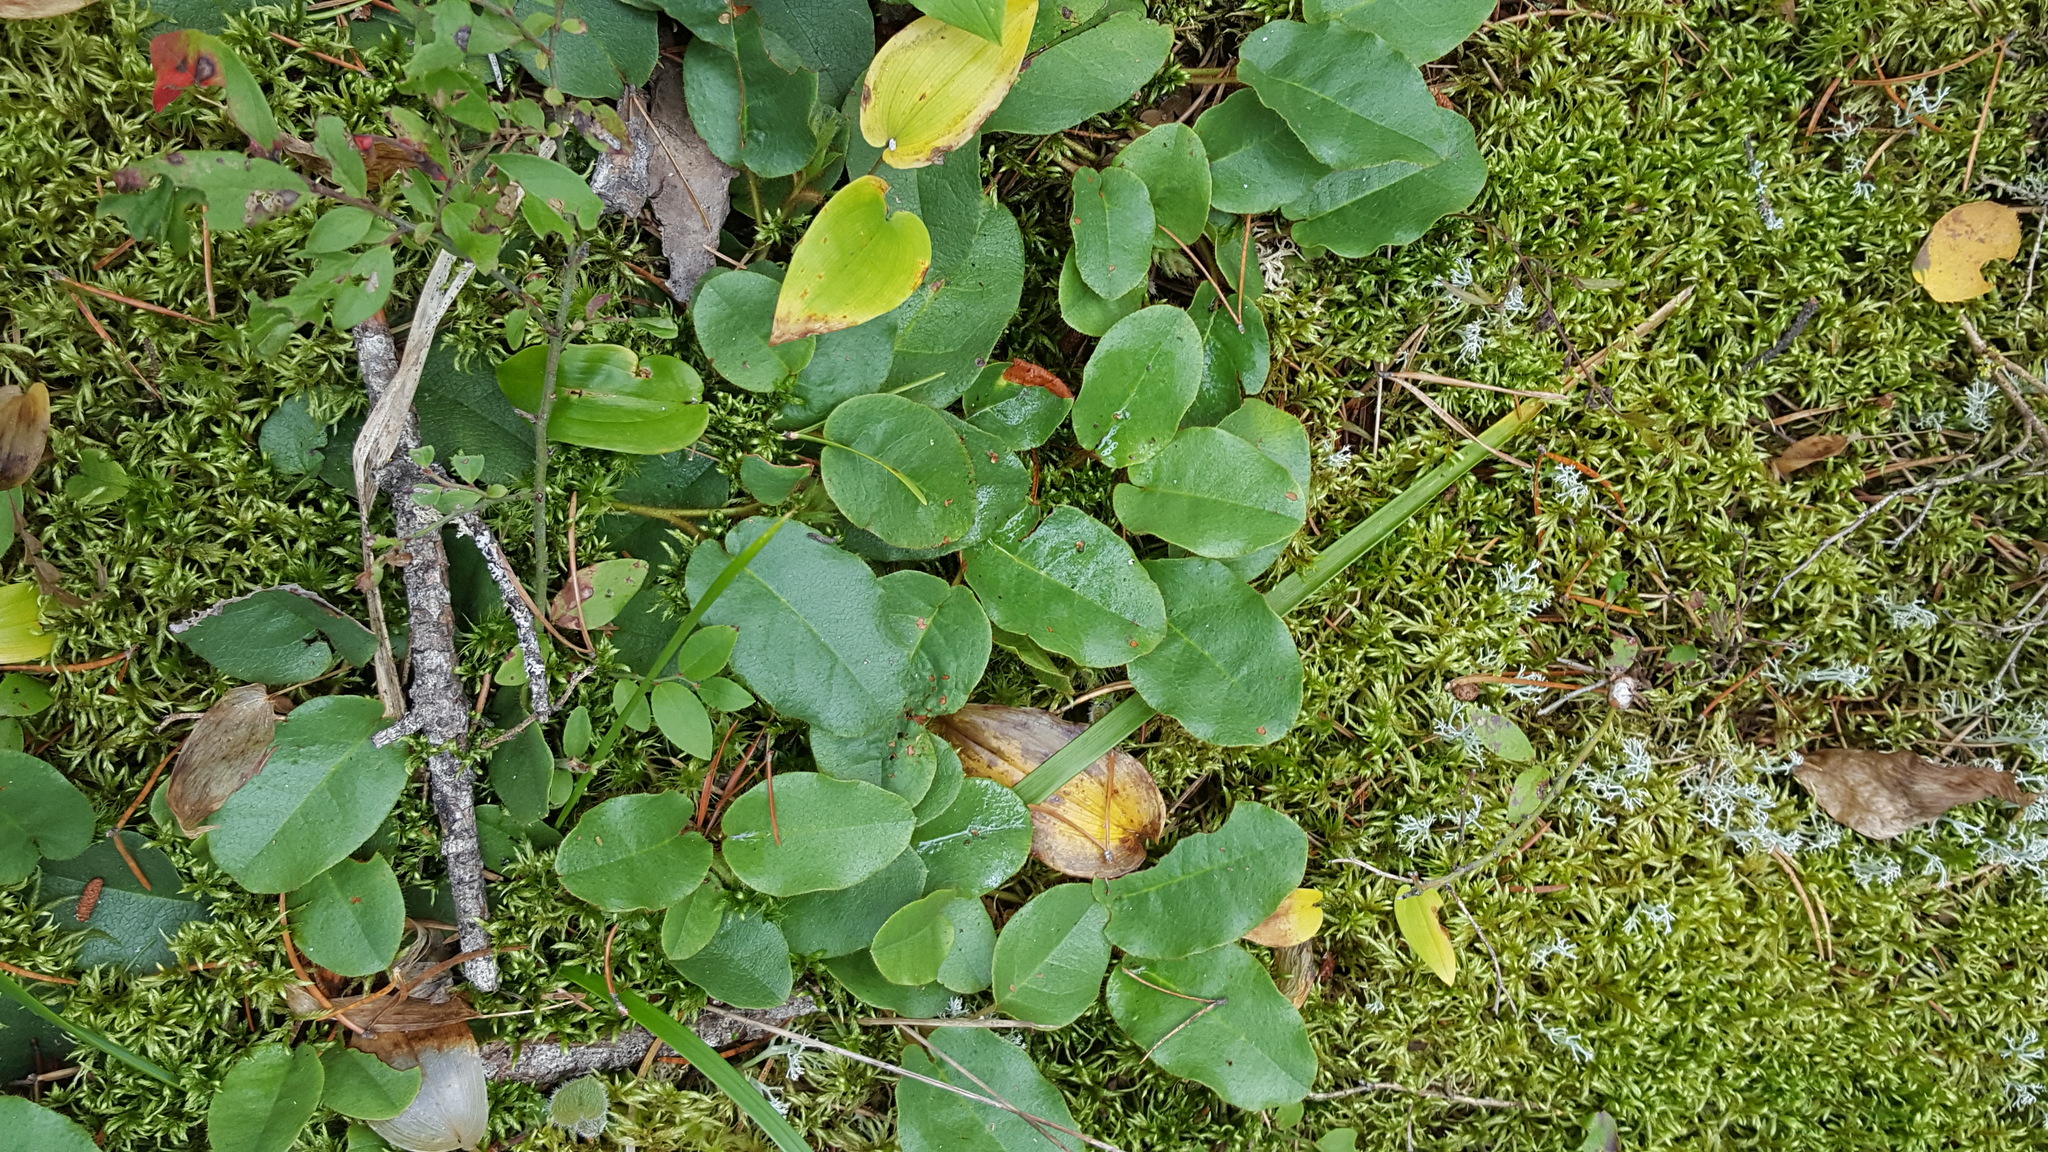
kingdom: Plantae
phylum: Tracheophyta
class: Magnoliopsida
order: Ericales
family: Ericaceae
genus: Epigaea
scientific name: Epigaea repens
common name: Gravelroot
